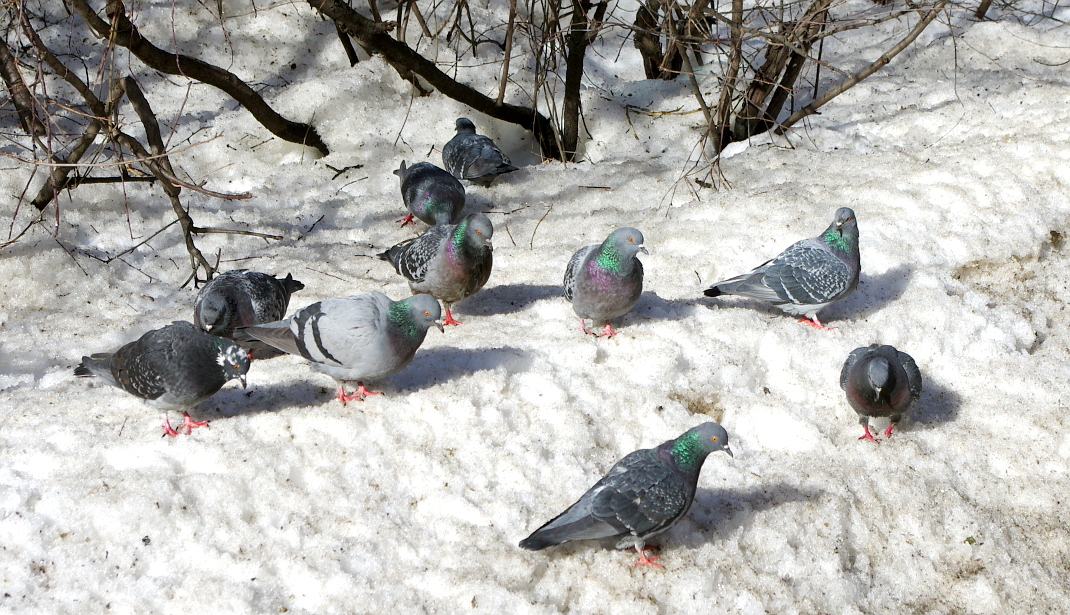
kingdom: Animalia
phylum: Chordata
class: Aves
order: Columbiformes
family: Columbidae
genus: Columba
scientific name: Columba livia
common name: Rock pigeon
